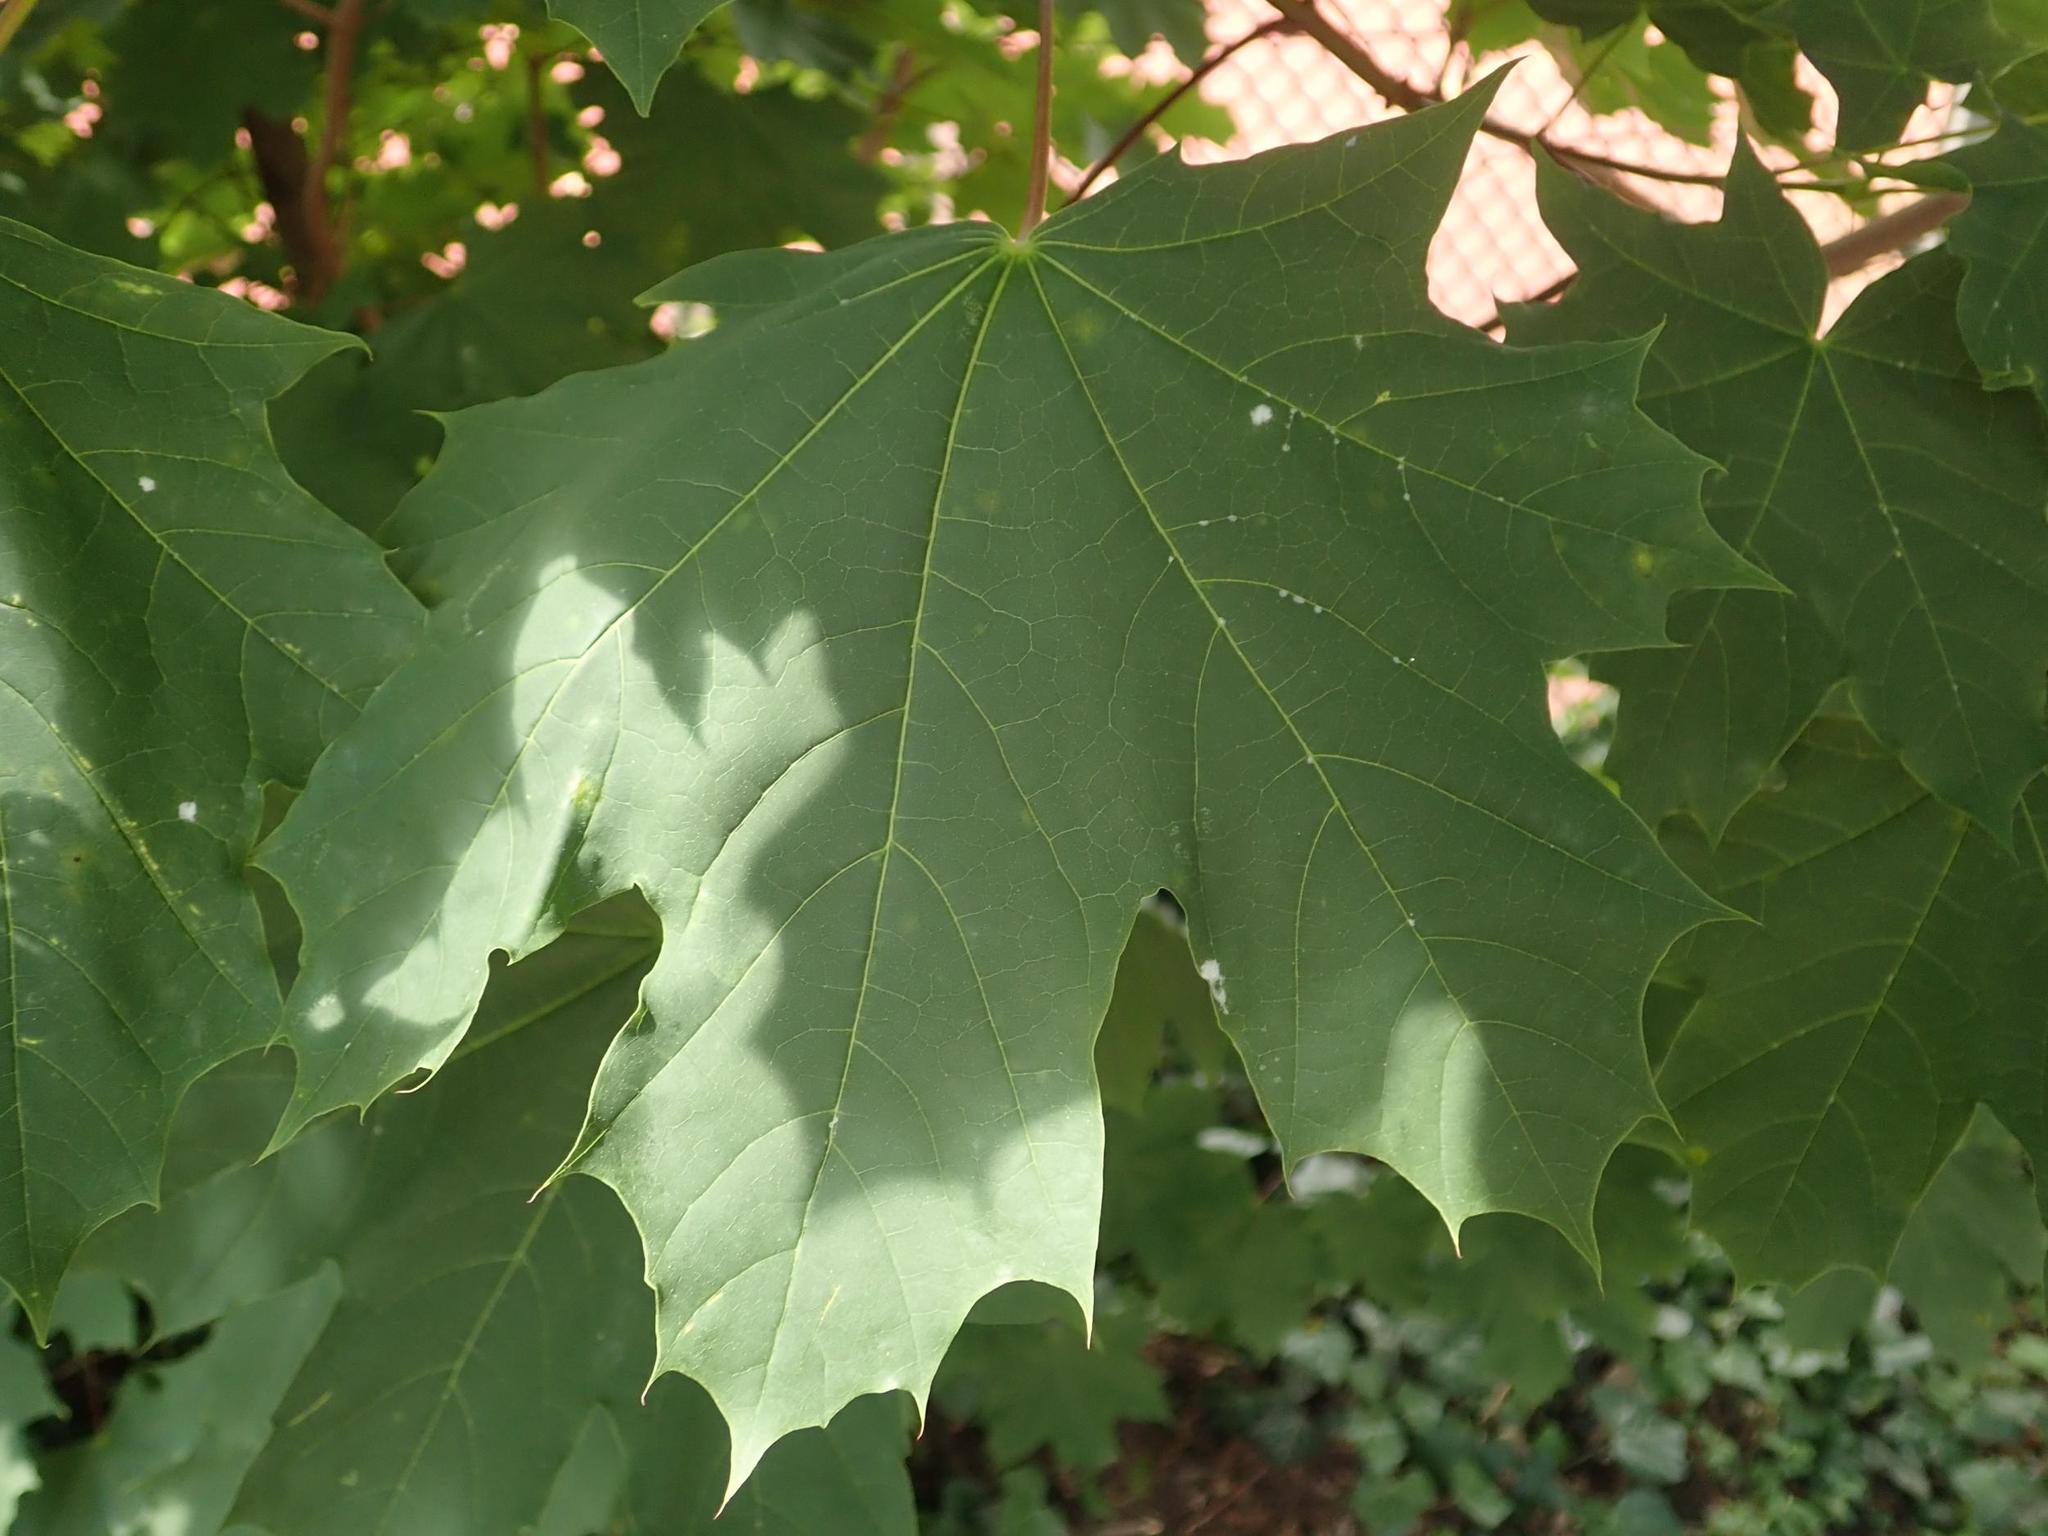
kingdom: Plantae
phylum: Tracheophyta
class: Magnoliopsida
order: Sapindales
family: Sapindaceae
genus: Acer
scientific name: Acer platanoides
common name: Norway maple
